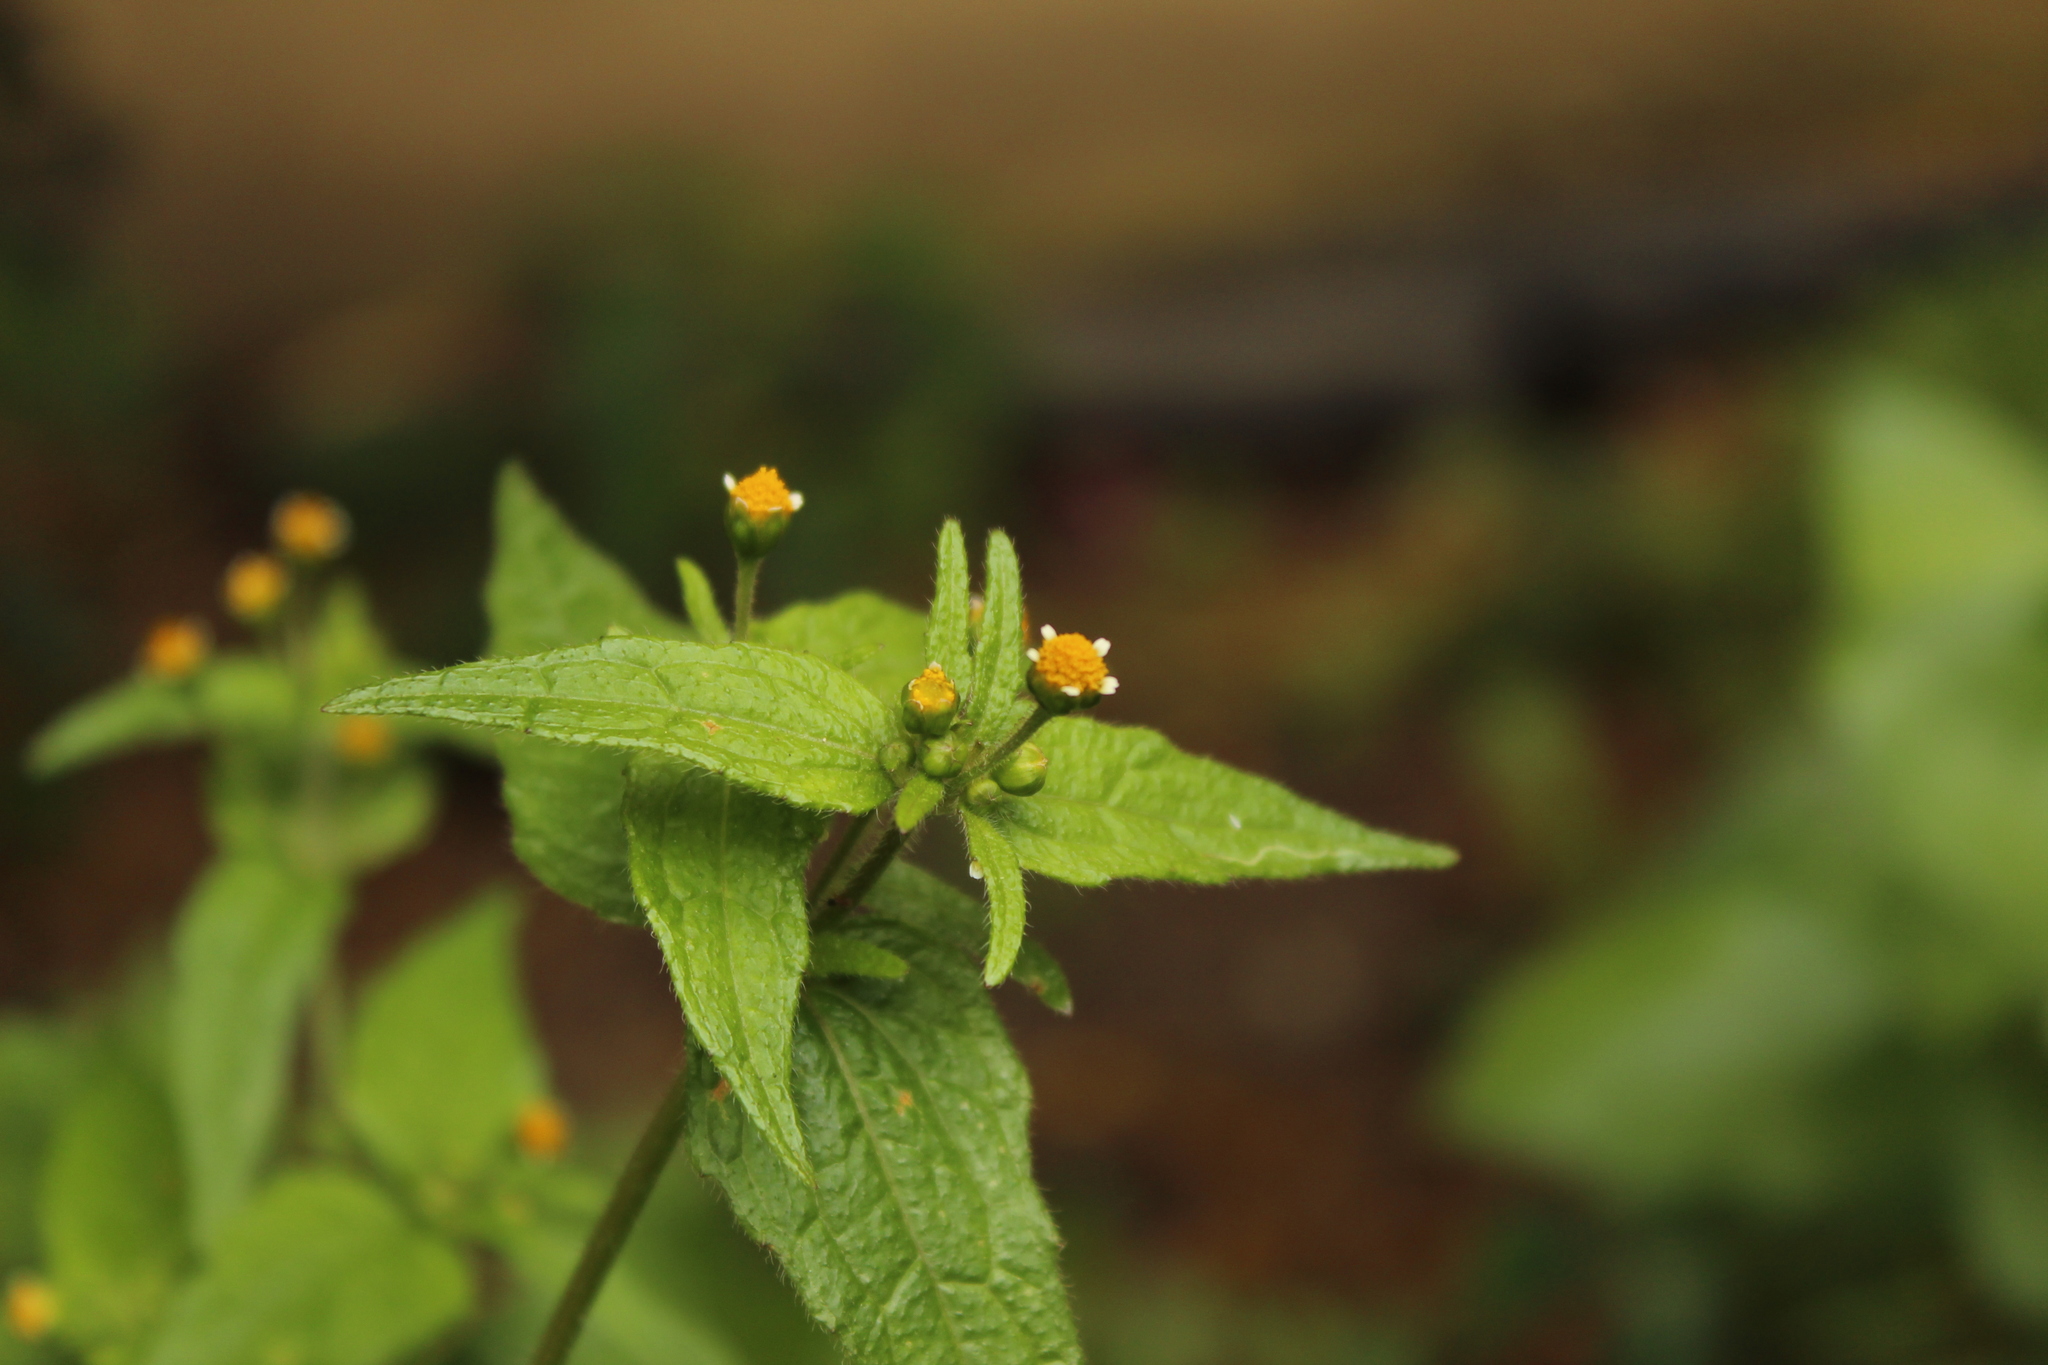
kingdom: Plantae
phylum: Tracheophyta
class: Magnoliopsida
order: Asterales
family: Asteraceae
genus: Galinsoga
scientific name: Galinsoga quadriradiata
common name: Shaggy soldier
